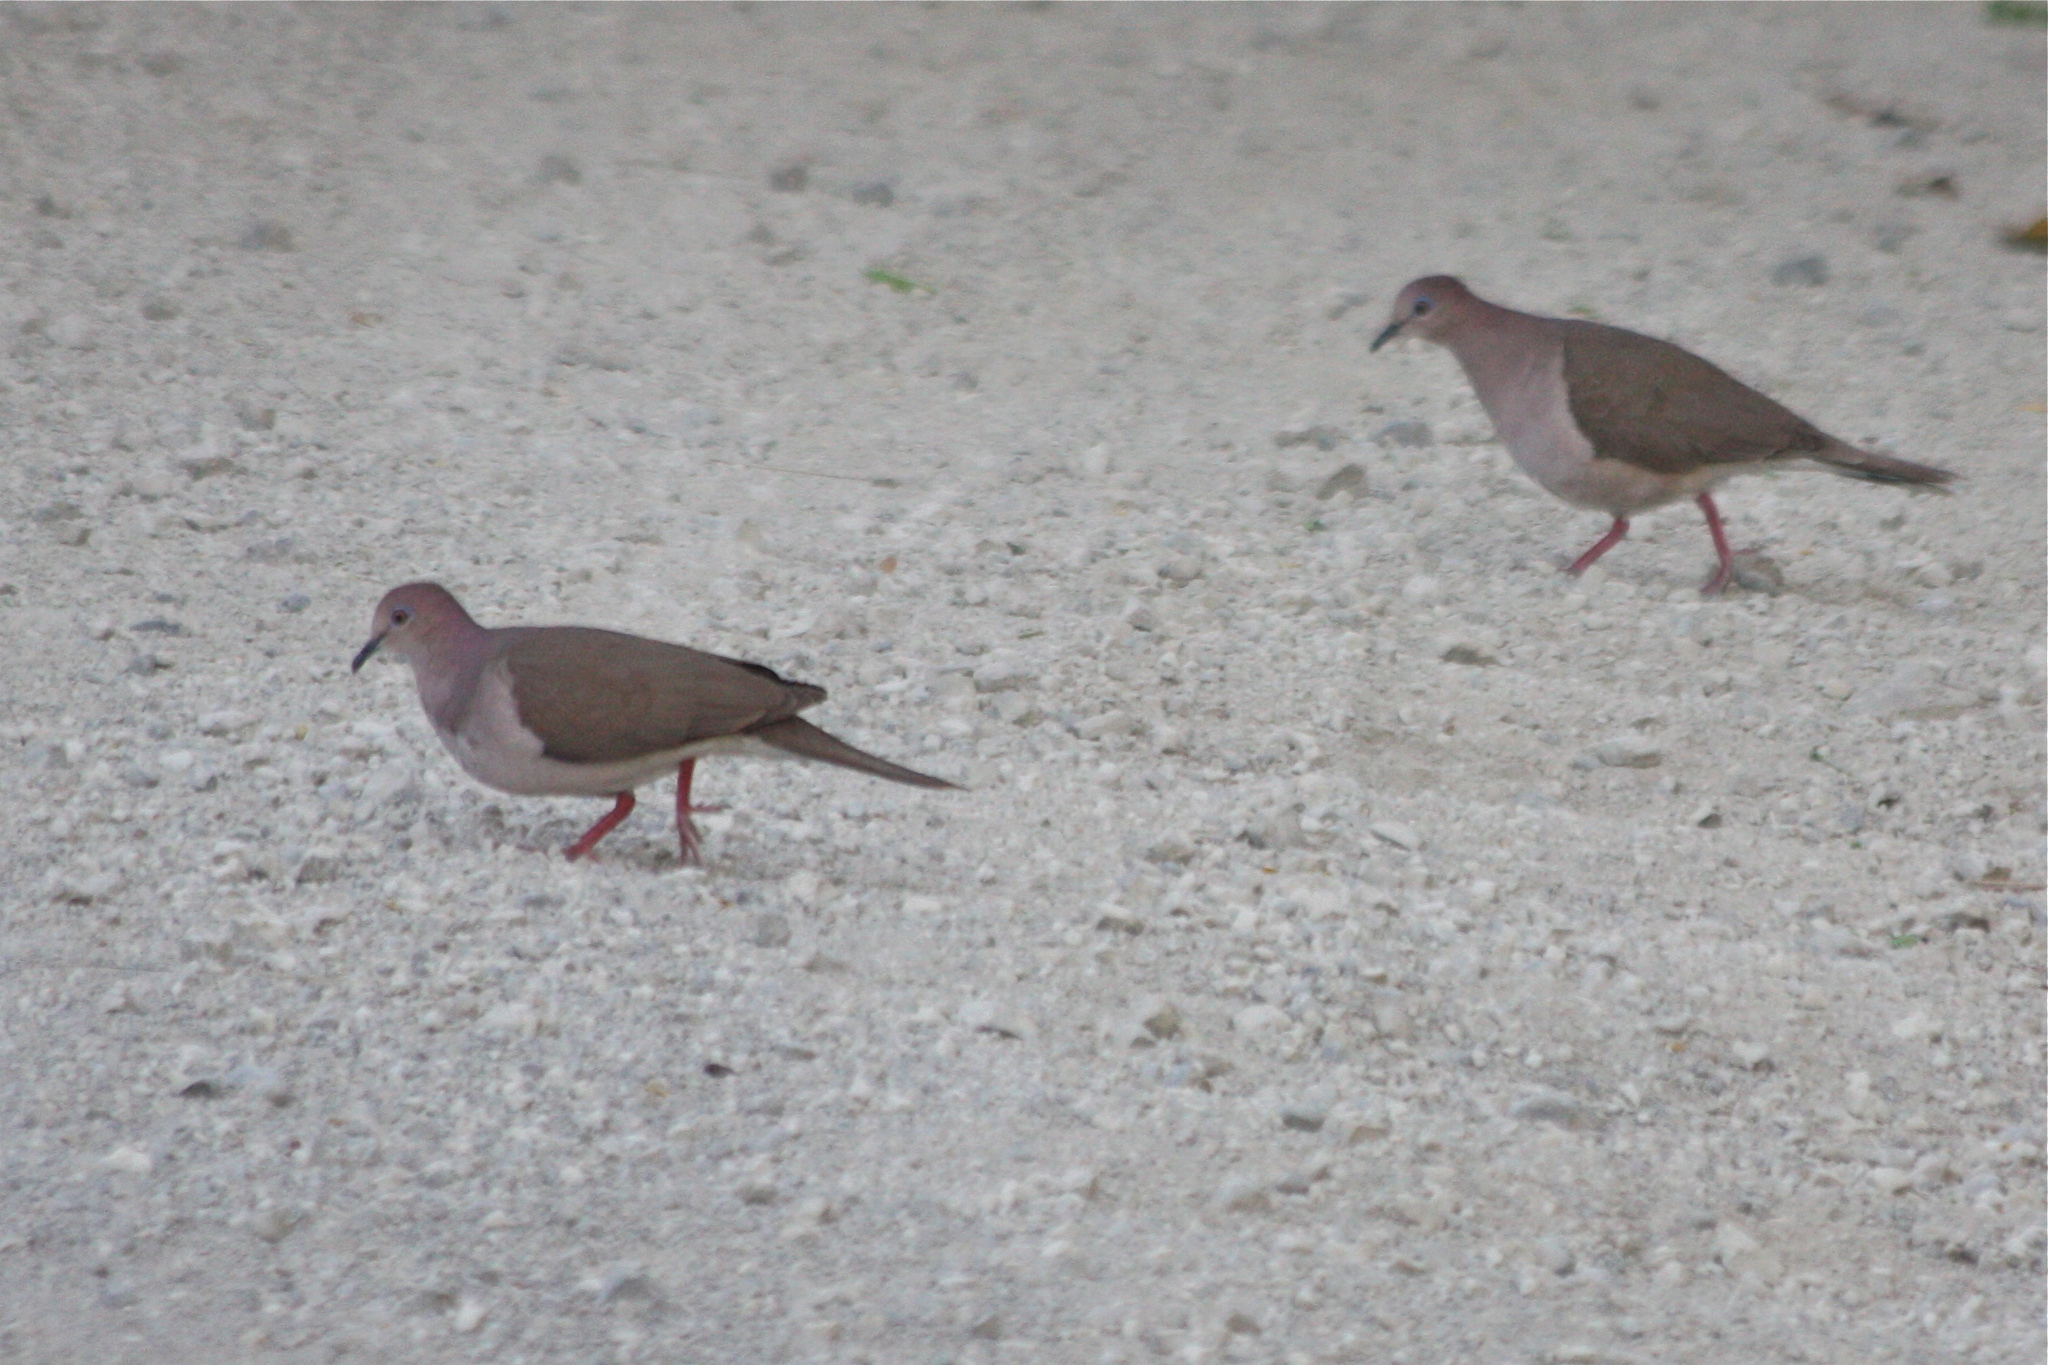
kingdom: Animalia
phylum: Chordata
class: Aves
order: Columbiformes
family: Columbidae
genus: Leptotila
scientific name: Leptotila verreauxi
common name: White-tipped dove
